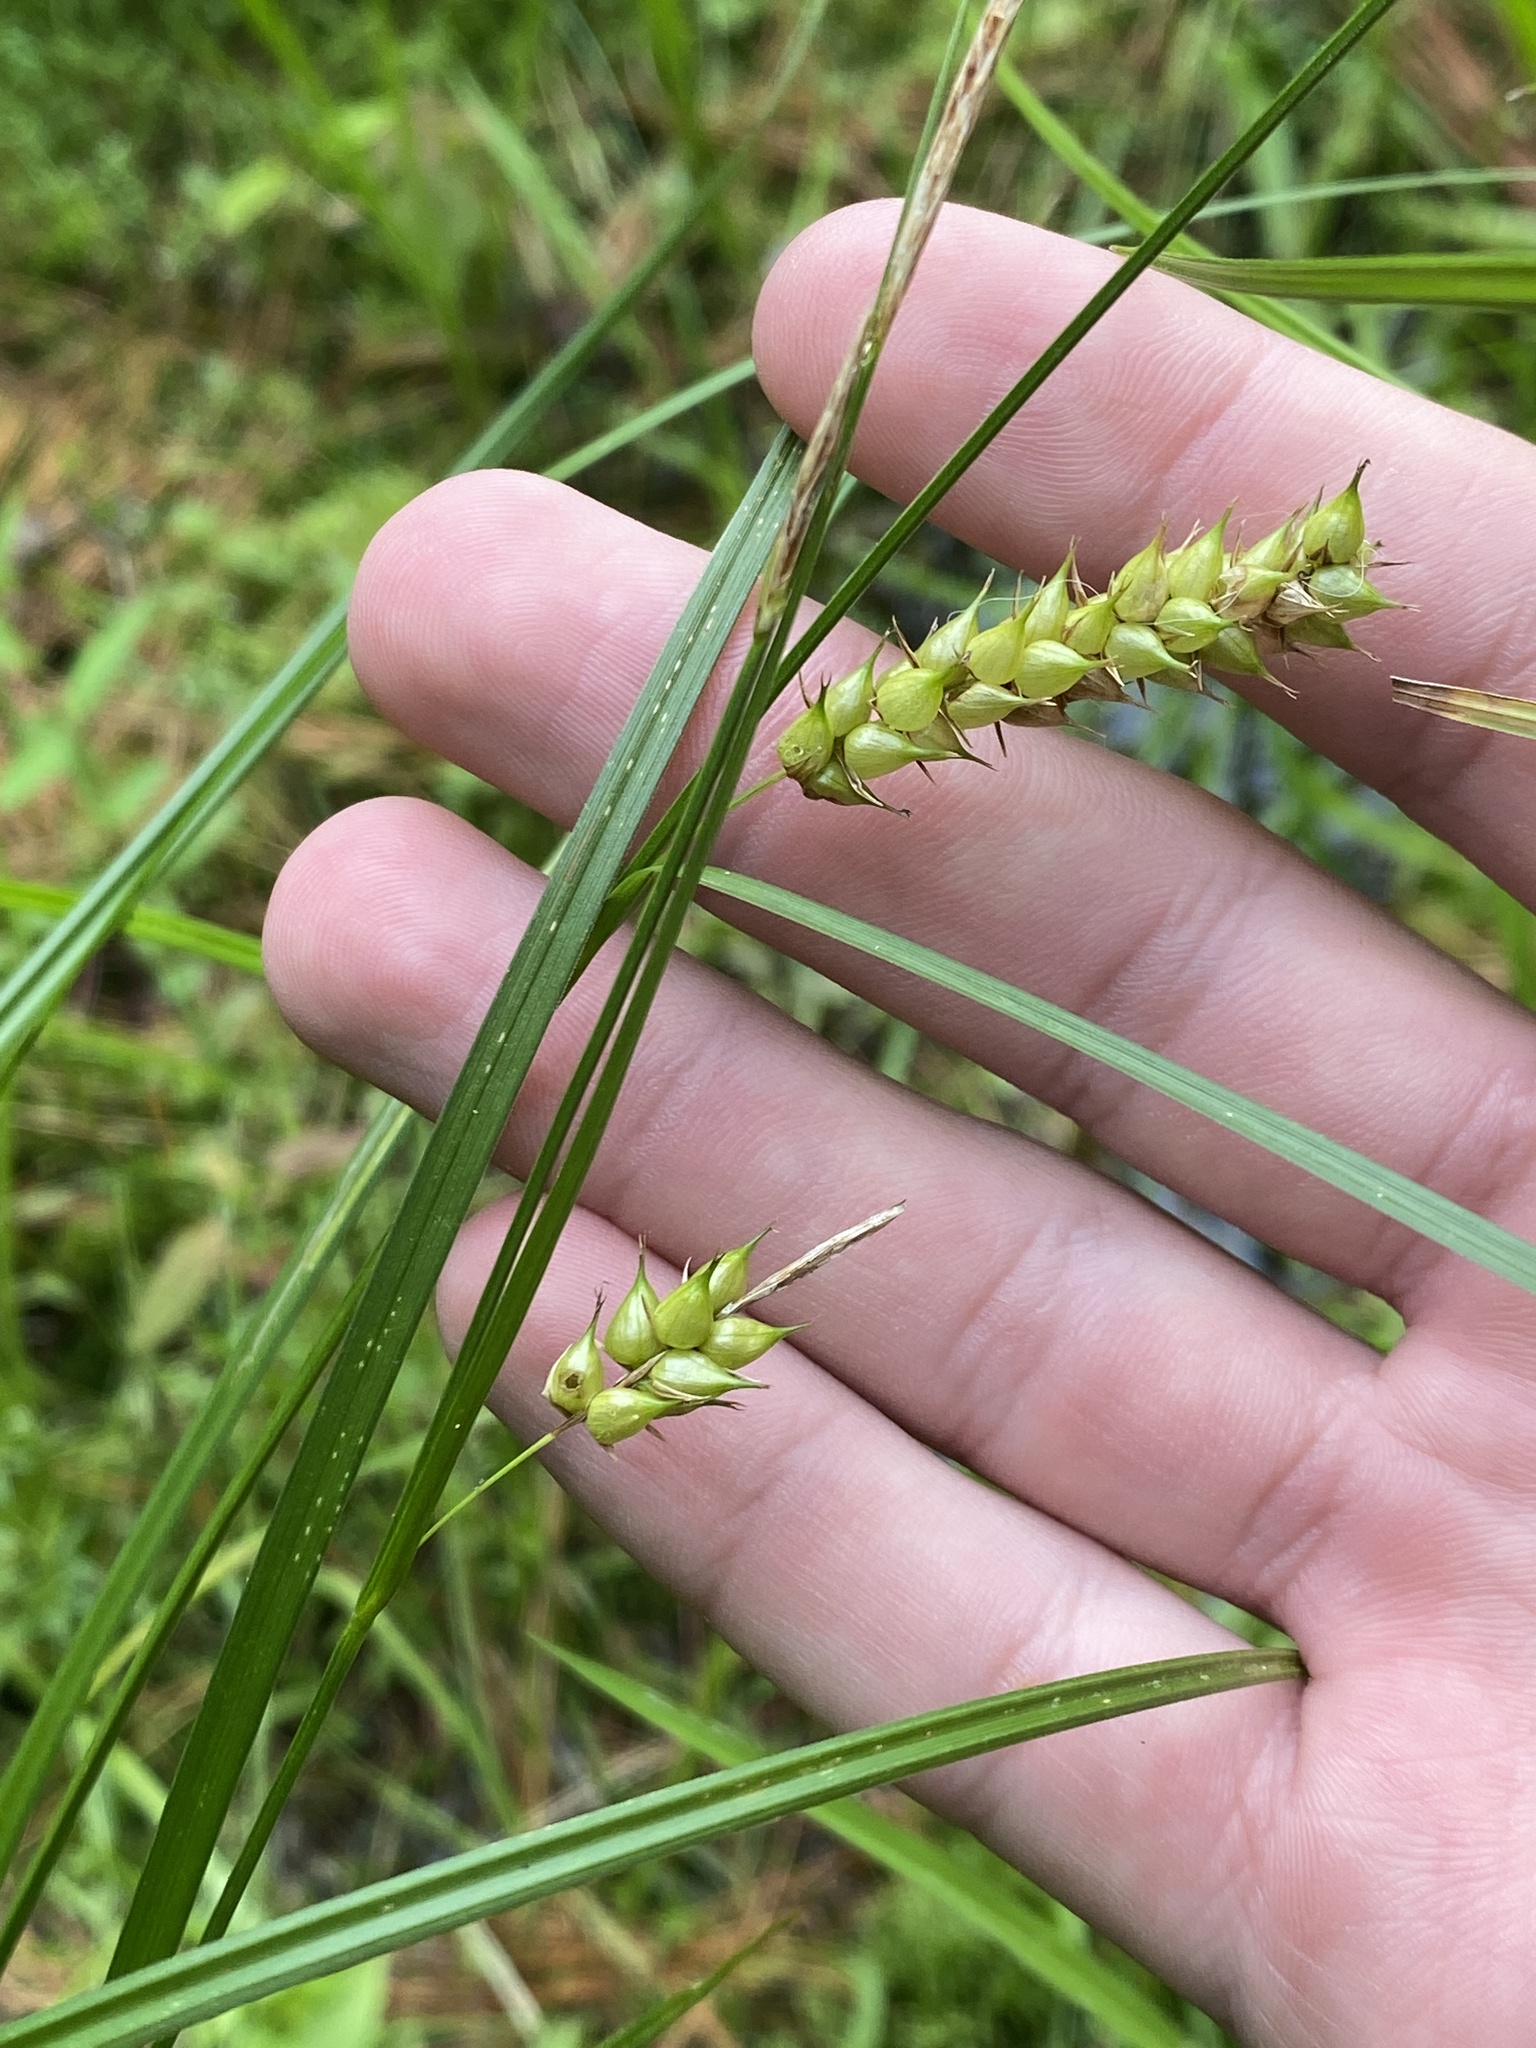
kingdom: Plantae
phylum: Tracheophyta
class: Liliopsida
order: Poales
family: Cyperaceae
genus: Carex
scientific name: Carex vesicaria
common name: Bladder-sedge
